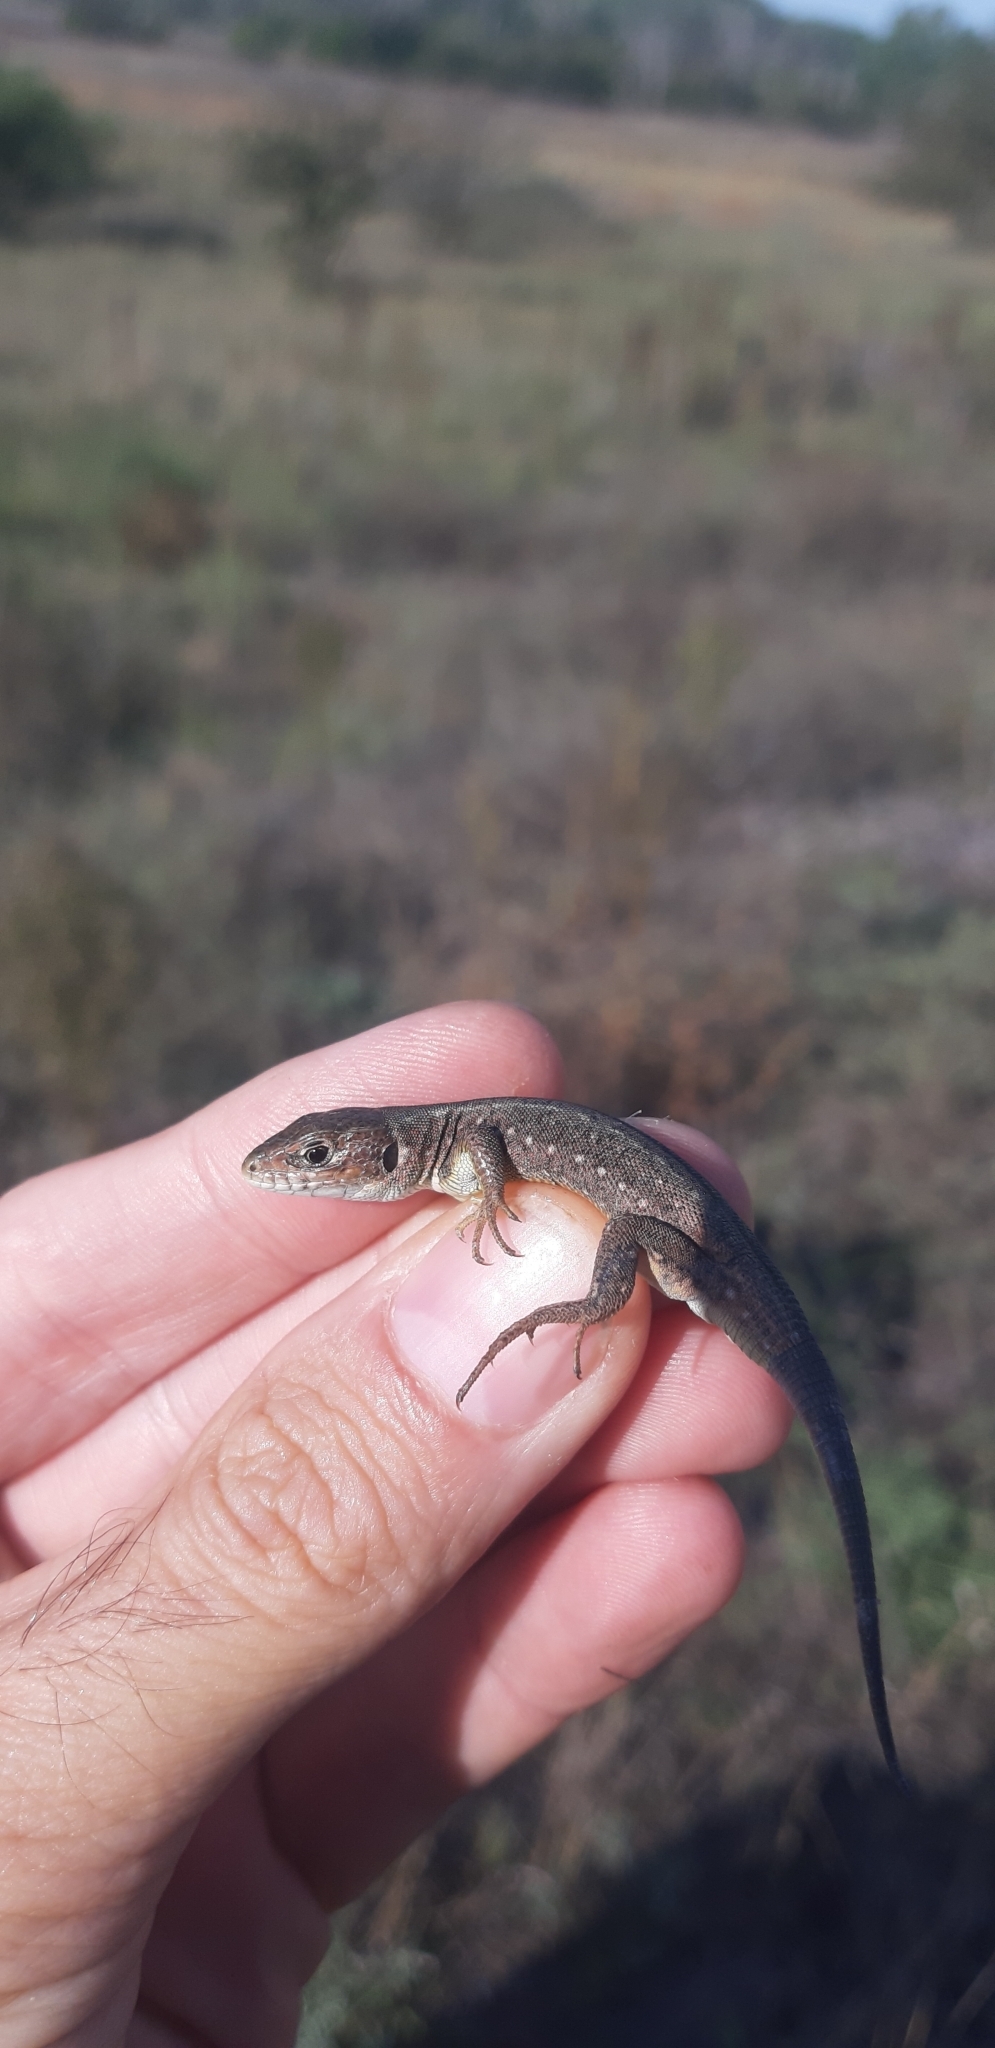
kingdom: Animalia
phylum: Chordata
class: Squamata
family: Lacertidae
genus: Lacerta
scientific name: Lacerta viridis
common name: European green lizard
